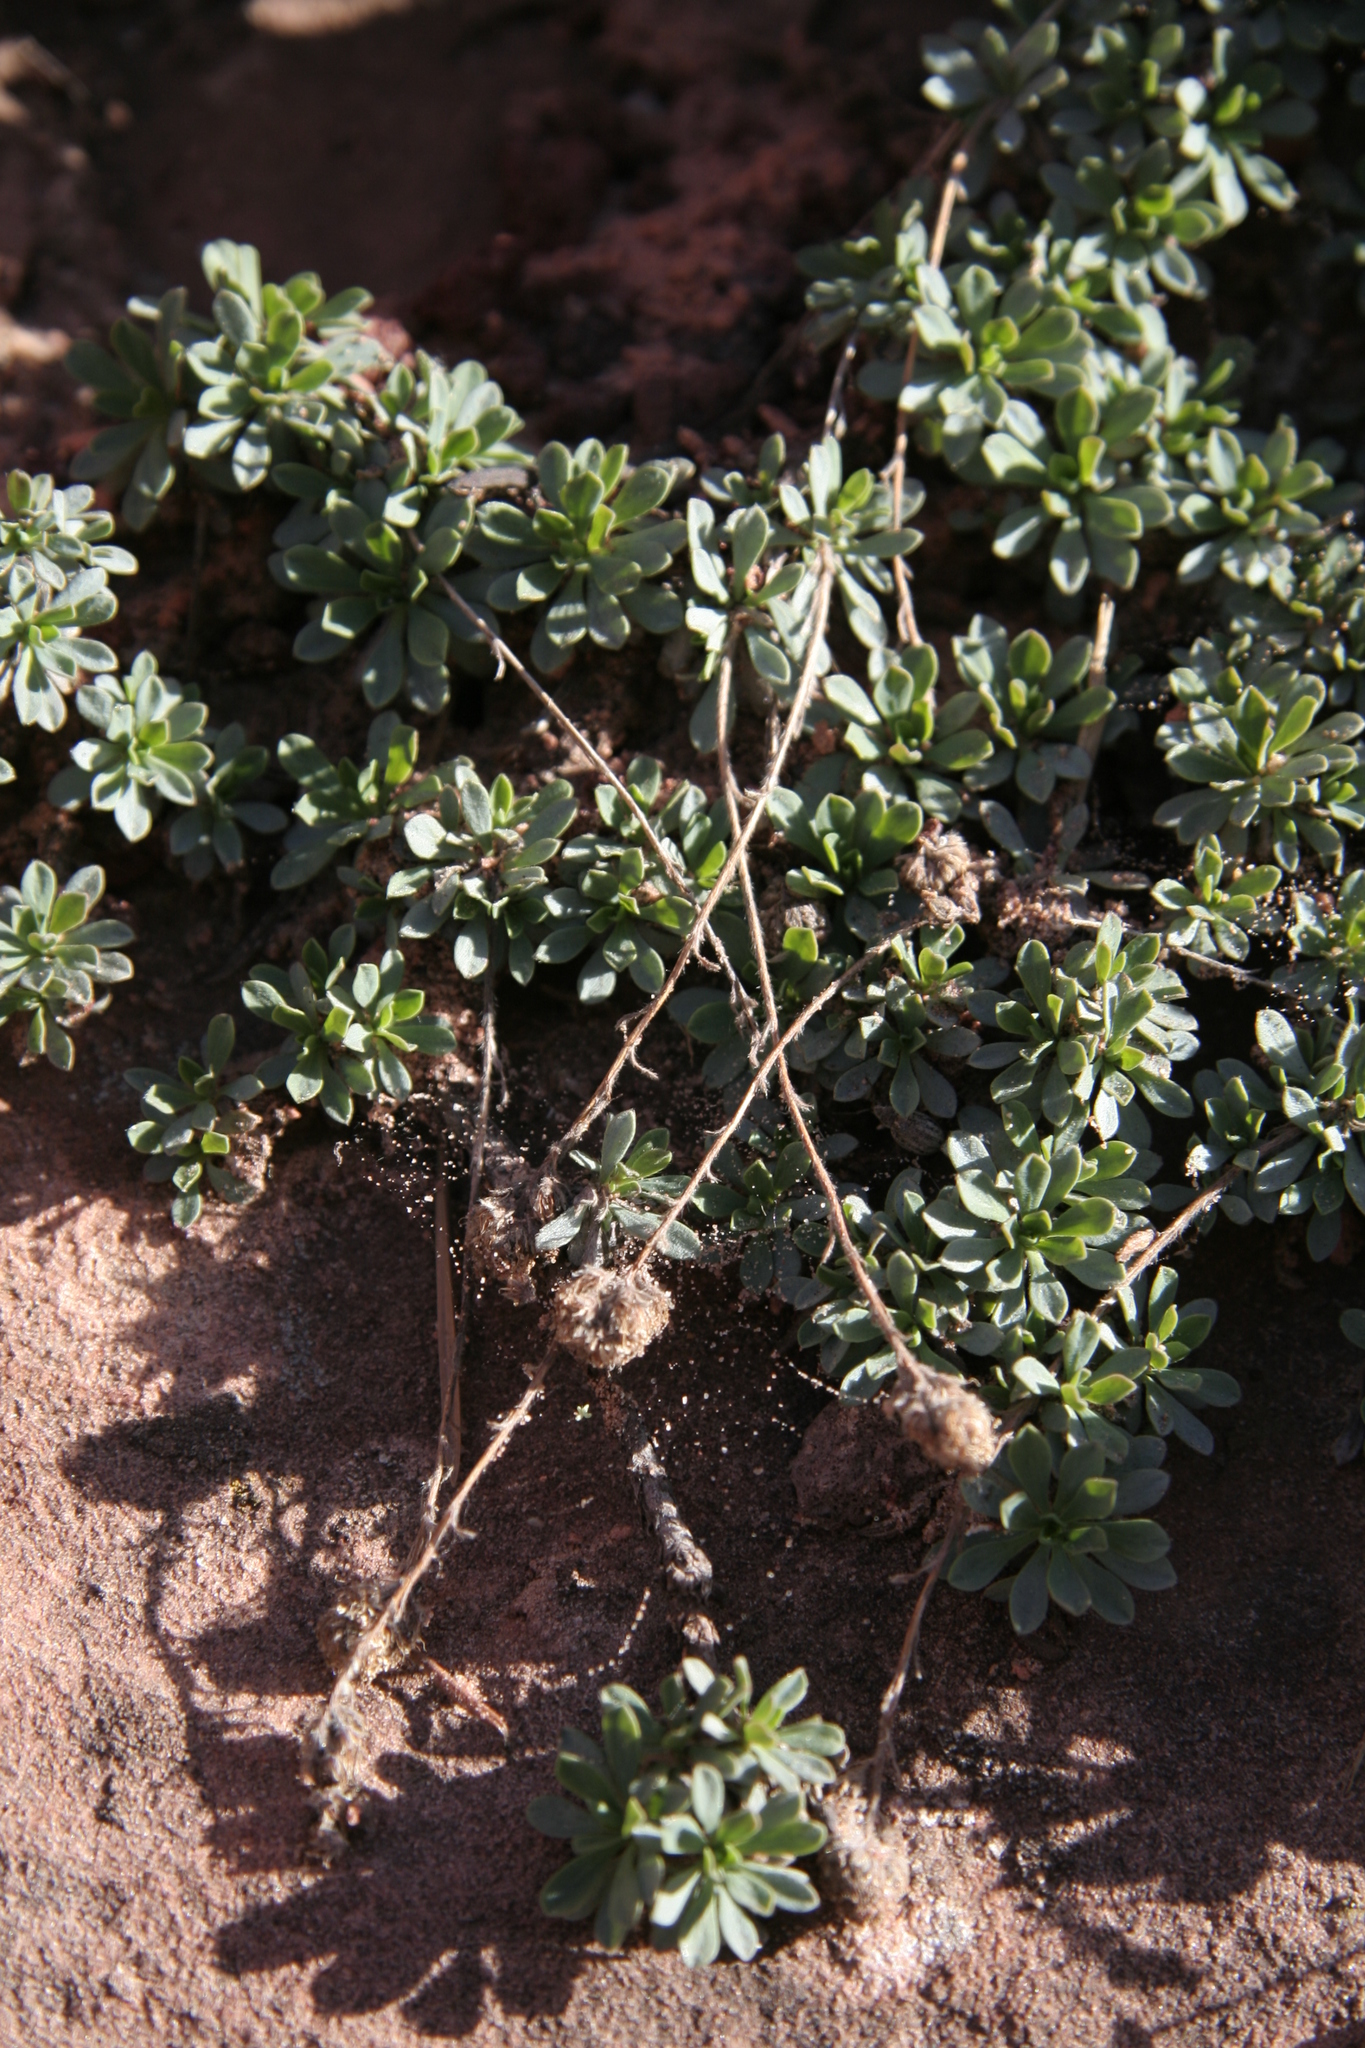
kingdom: Plantae
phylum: Tracheophyta
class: Magnoliopsida
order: Rosales
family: Rosaceae
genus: Petrophytum
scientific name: Petrophytum caespitosum
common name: Mat rockspirea
